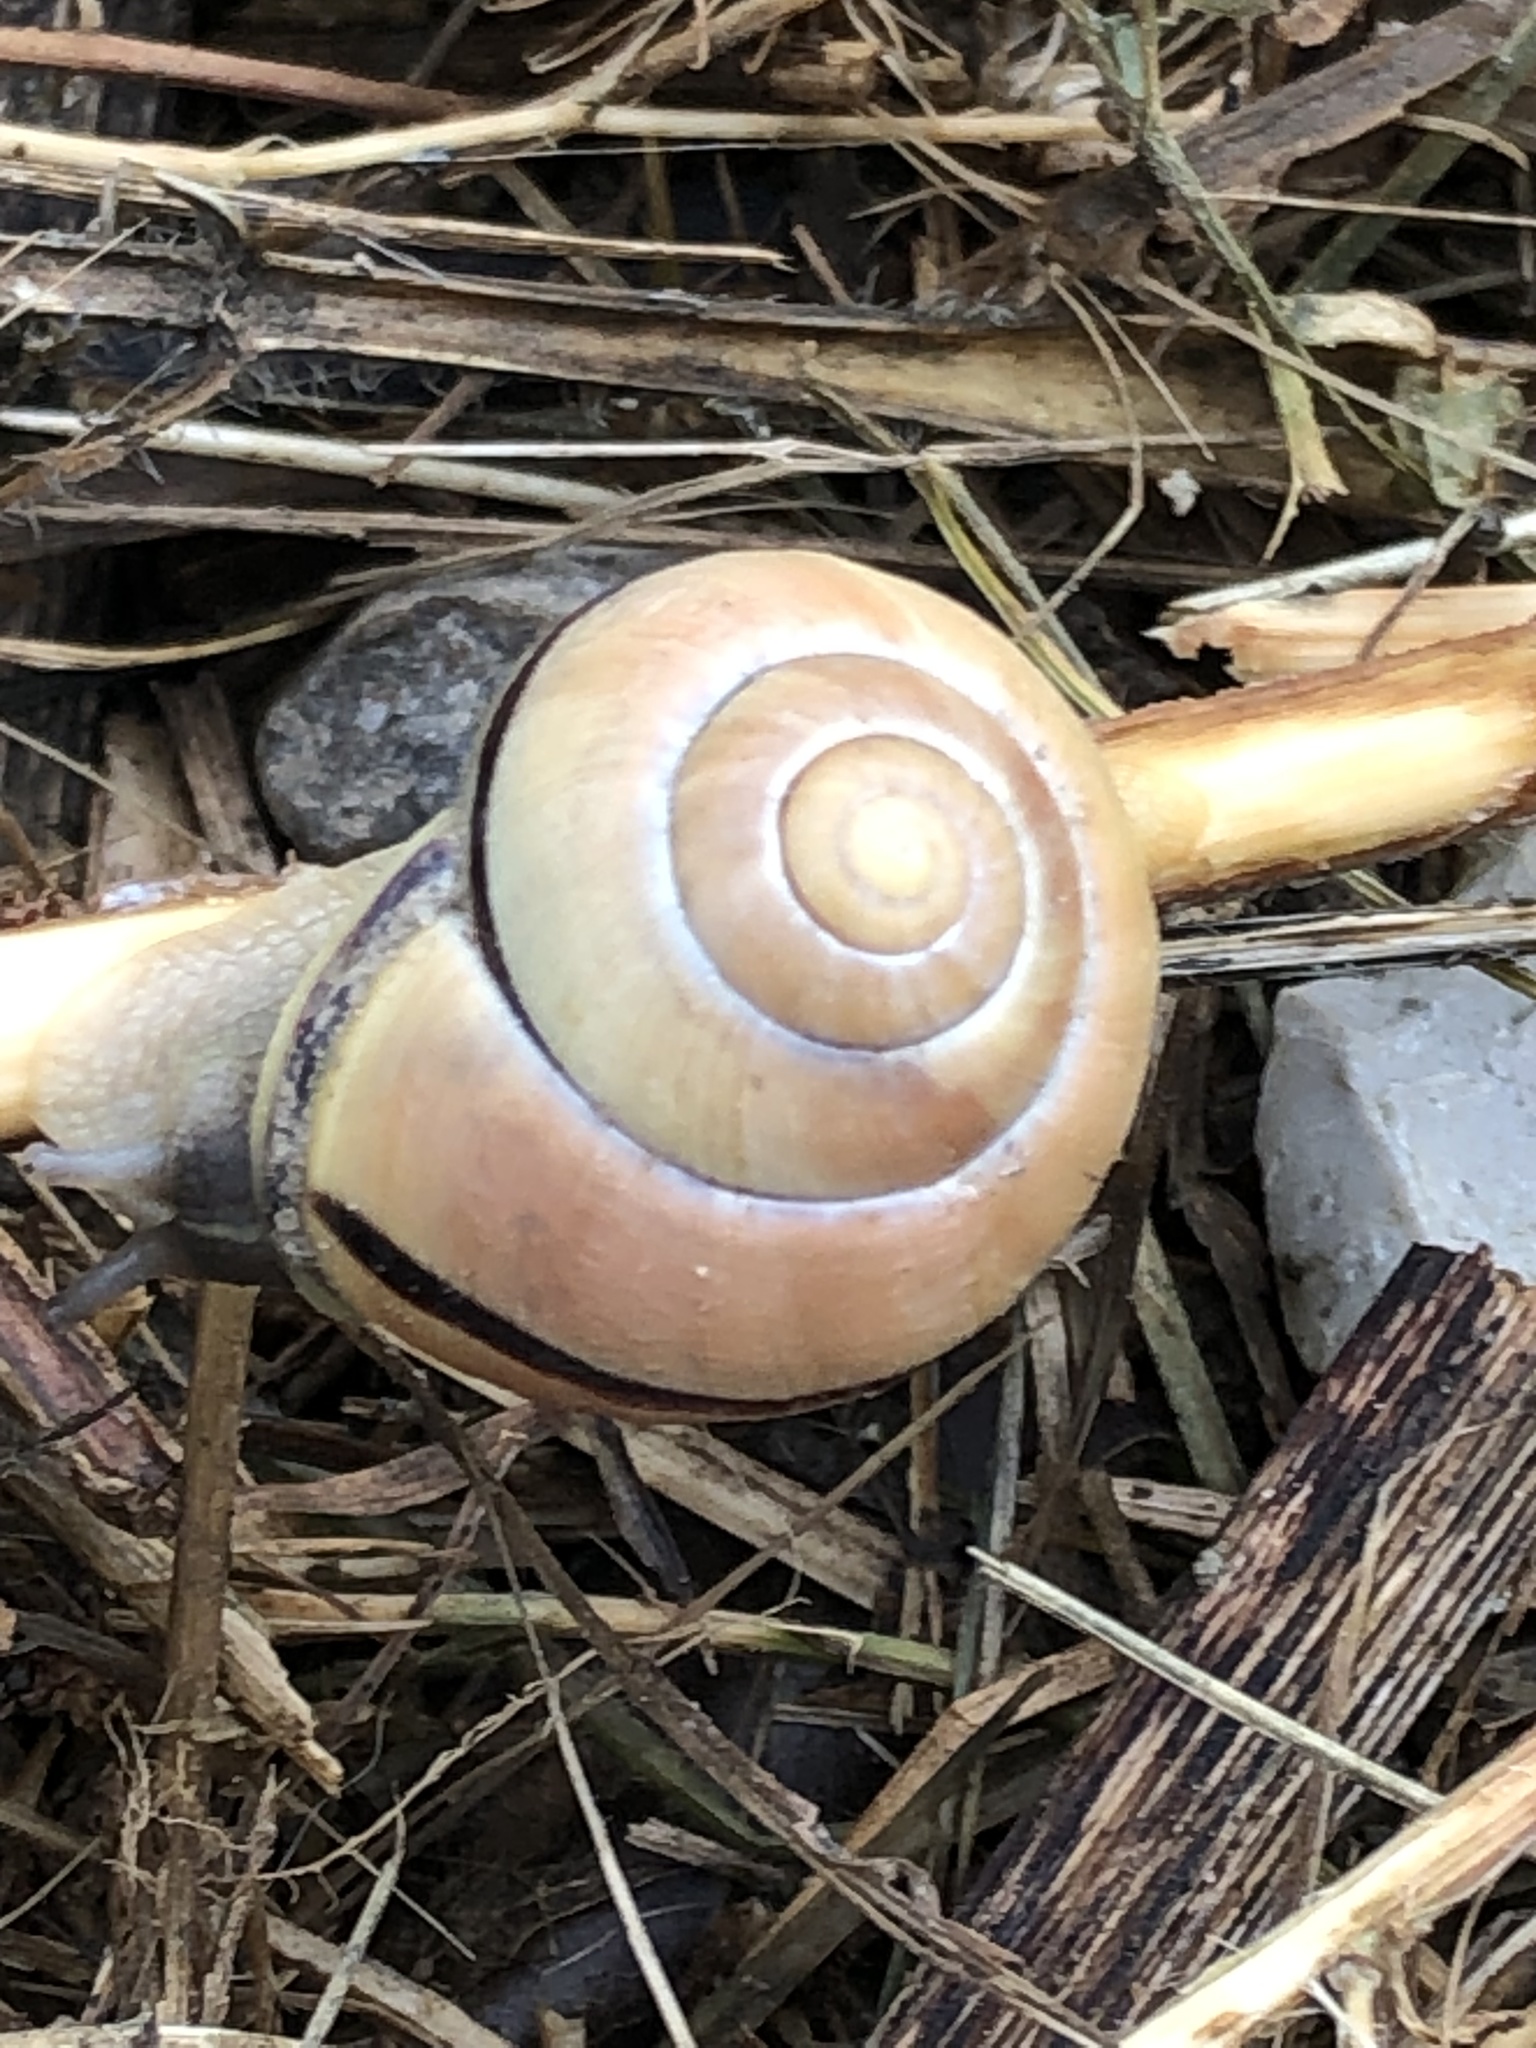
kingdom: Animalia
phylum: Mollusca
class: Gastropoda
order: Stylommatophora
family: Helicidae
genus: Cepaea
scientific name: Cepaea nemoralis
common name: Grovesnail
